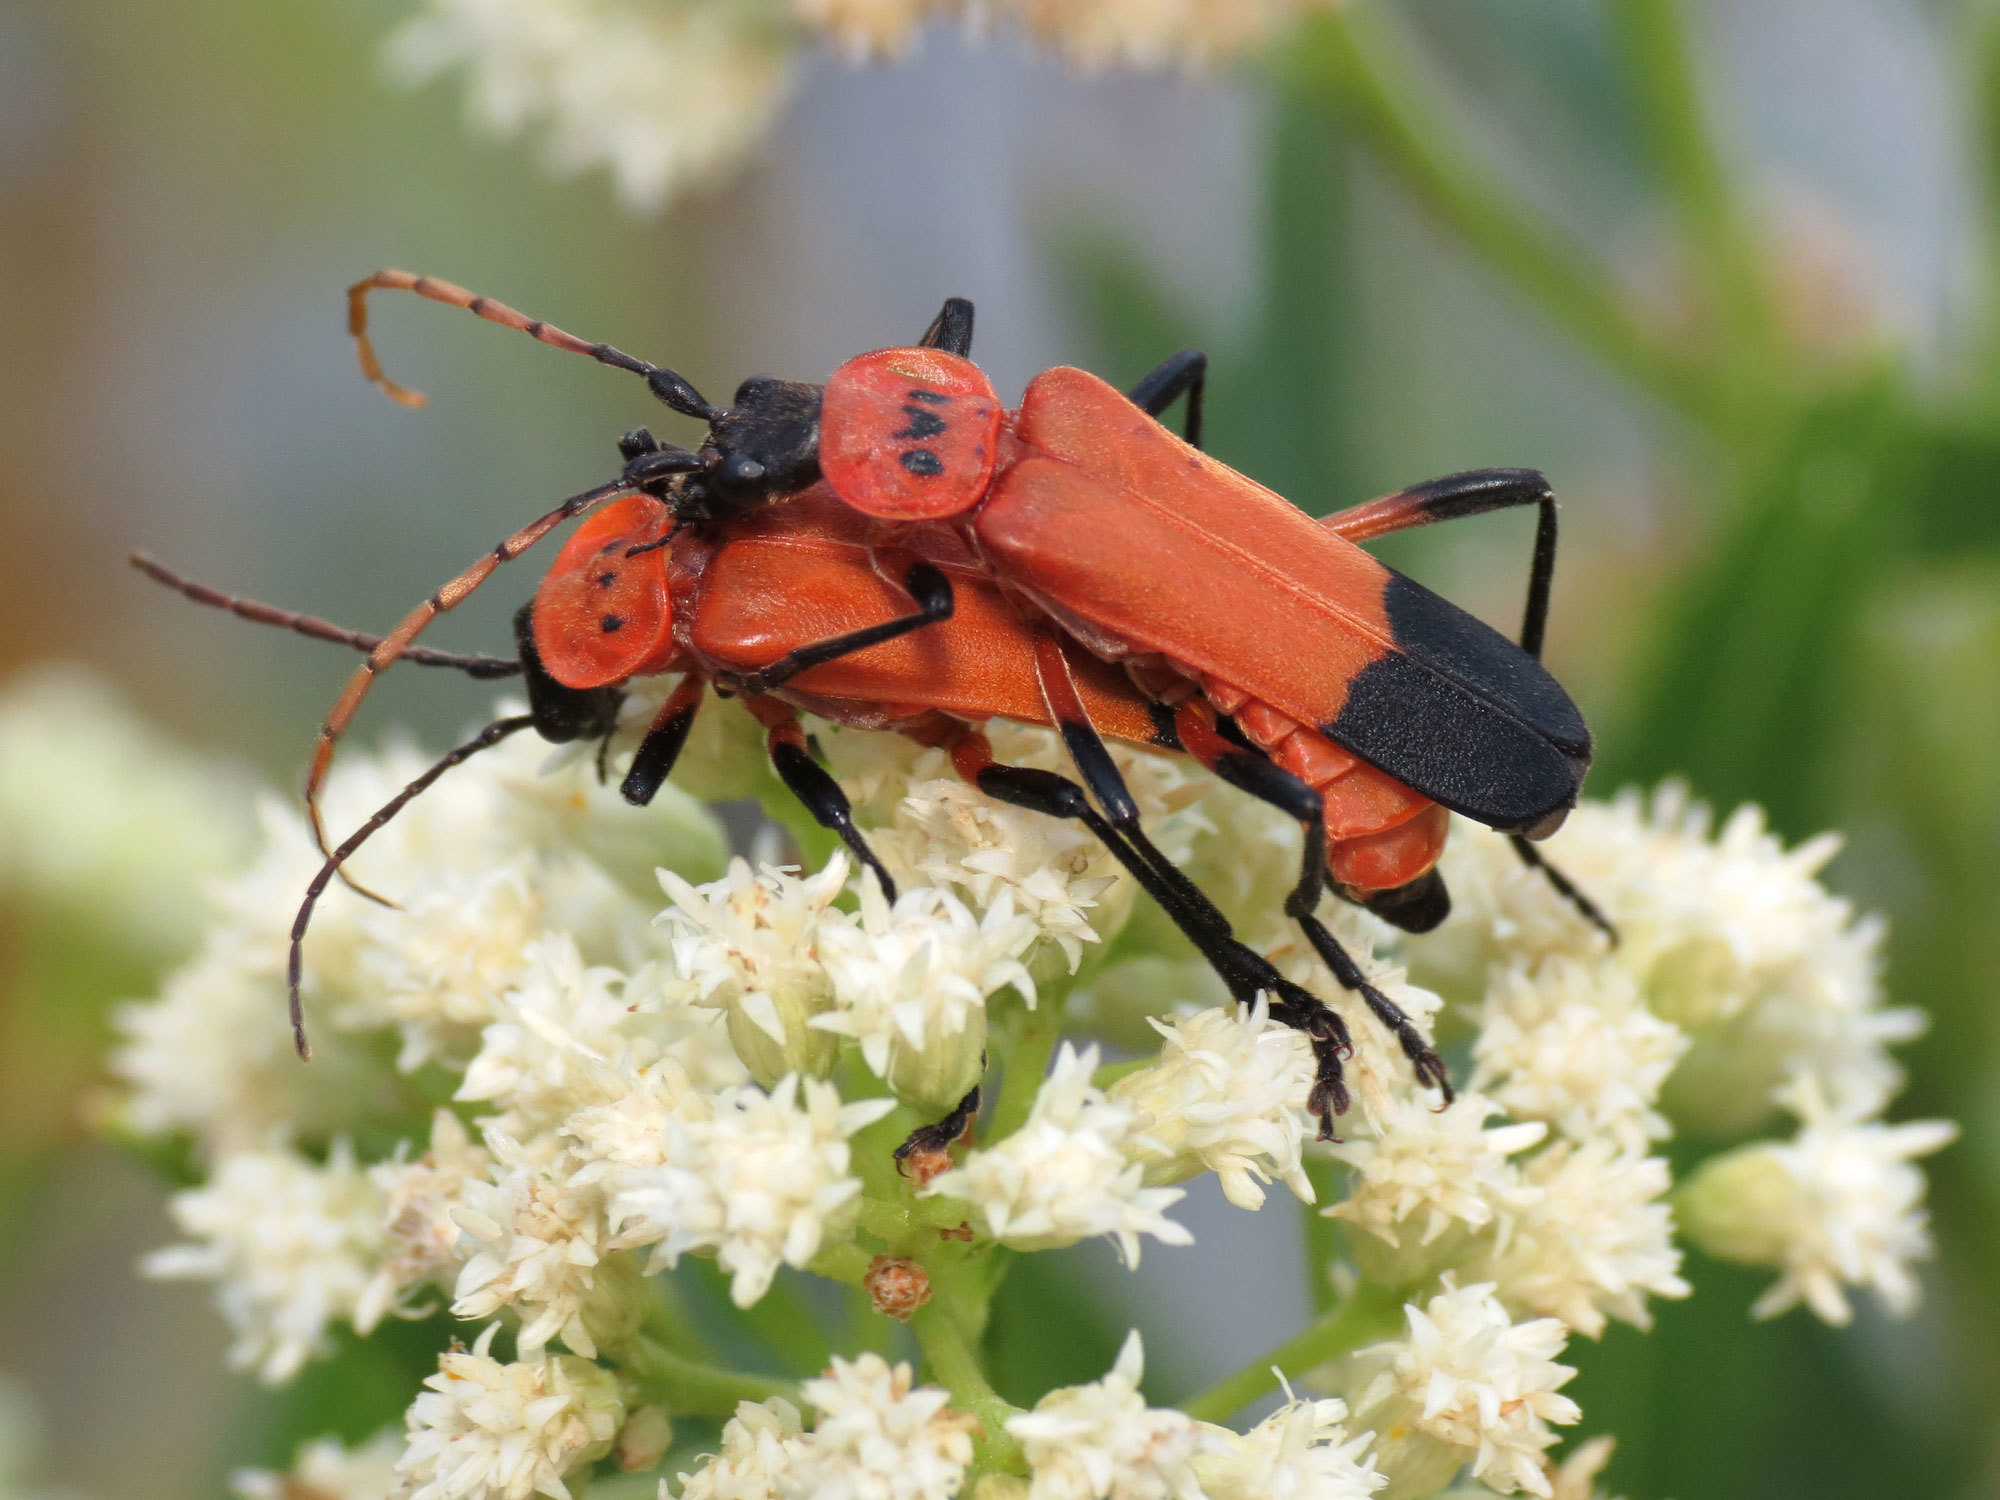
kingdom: Animalia
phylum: Arthropoda
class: Insecta
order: Coleoptera
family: Cantharidae
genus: Chauliognathus
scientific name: Chauliognathus profundus
